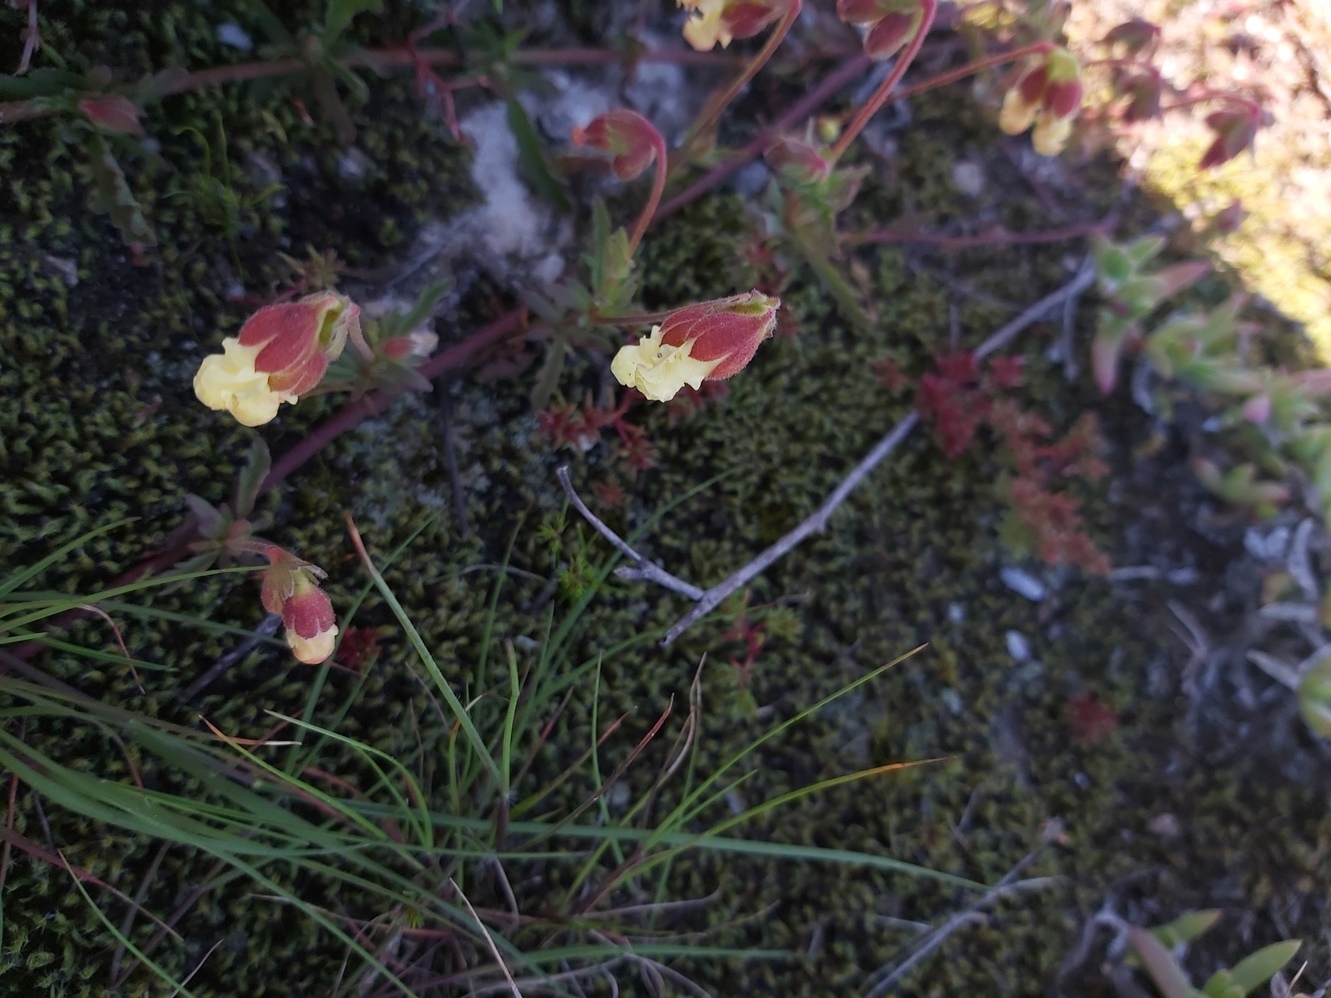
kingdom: Plantae
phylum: Tracheophyta
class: Magnoliopsida
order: Malvales
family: Malvaceae
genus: Hermannia
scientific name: Hermannia litoralis
